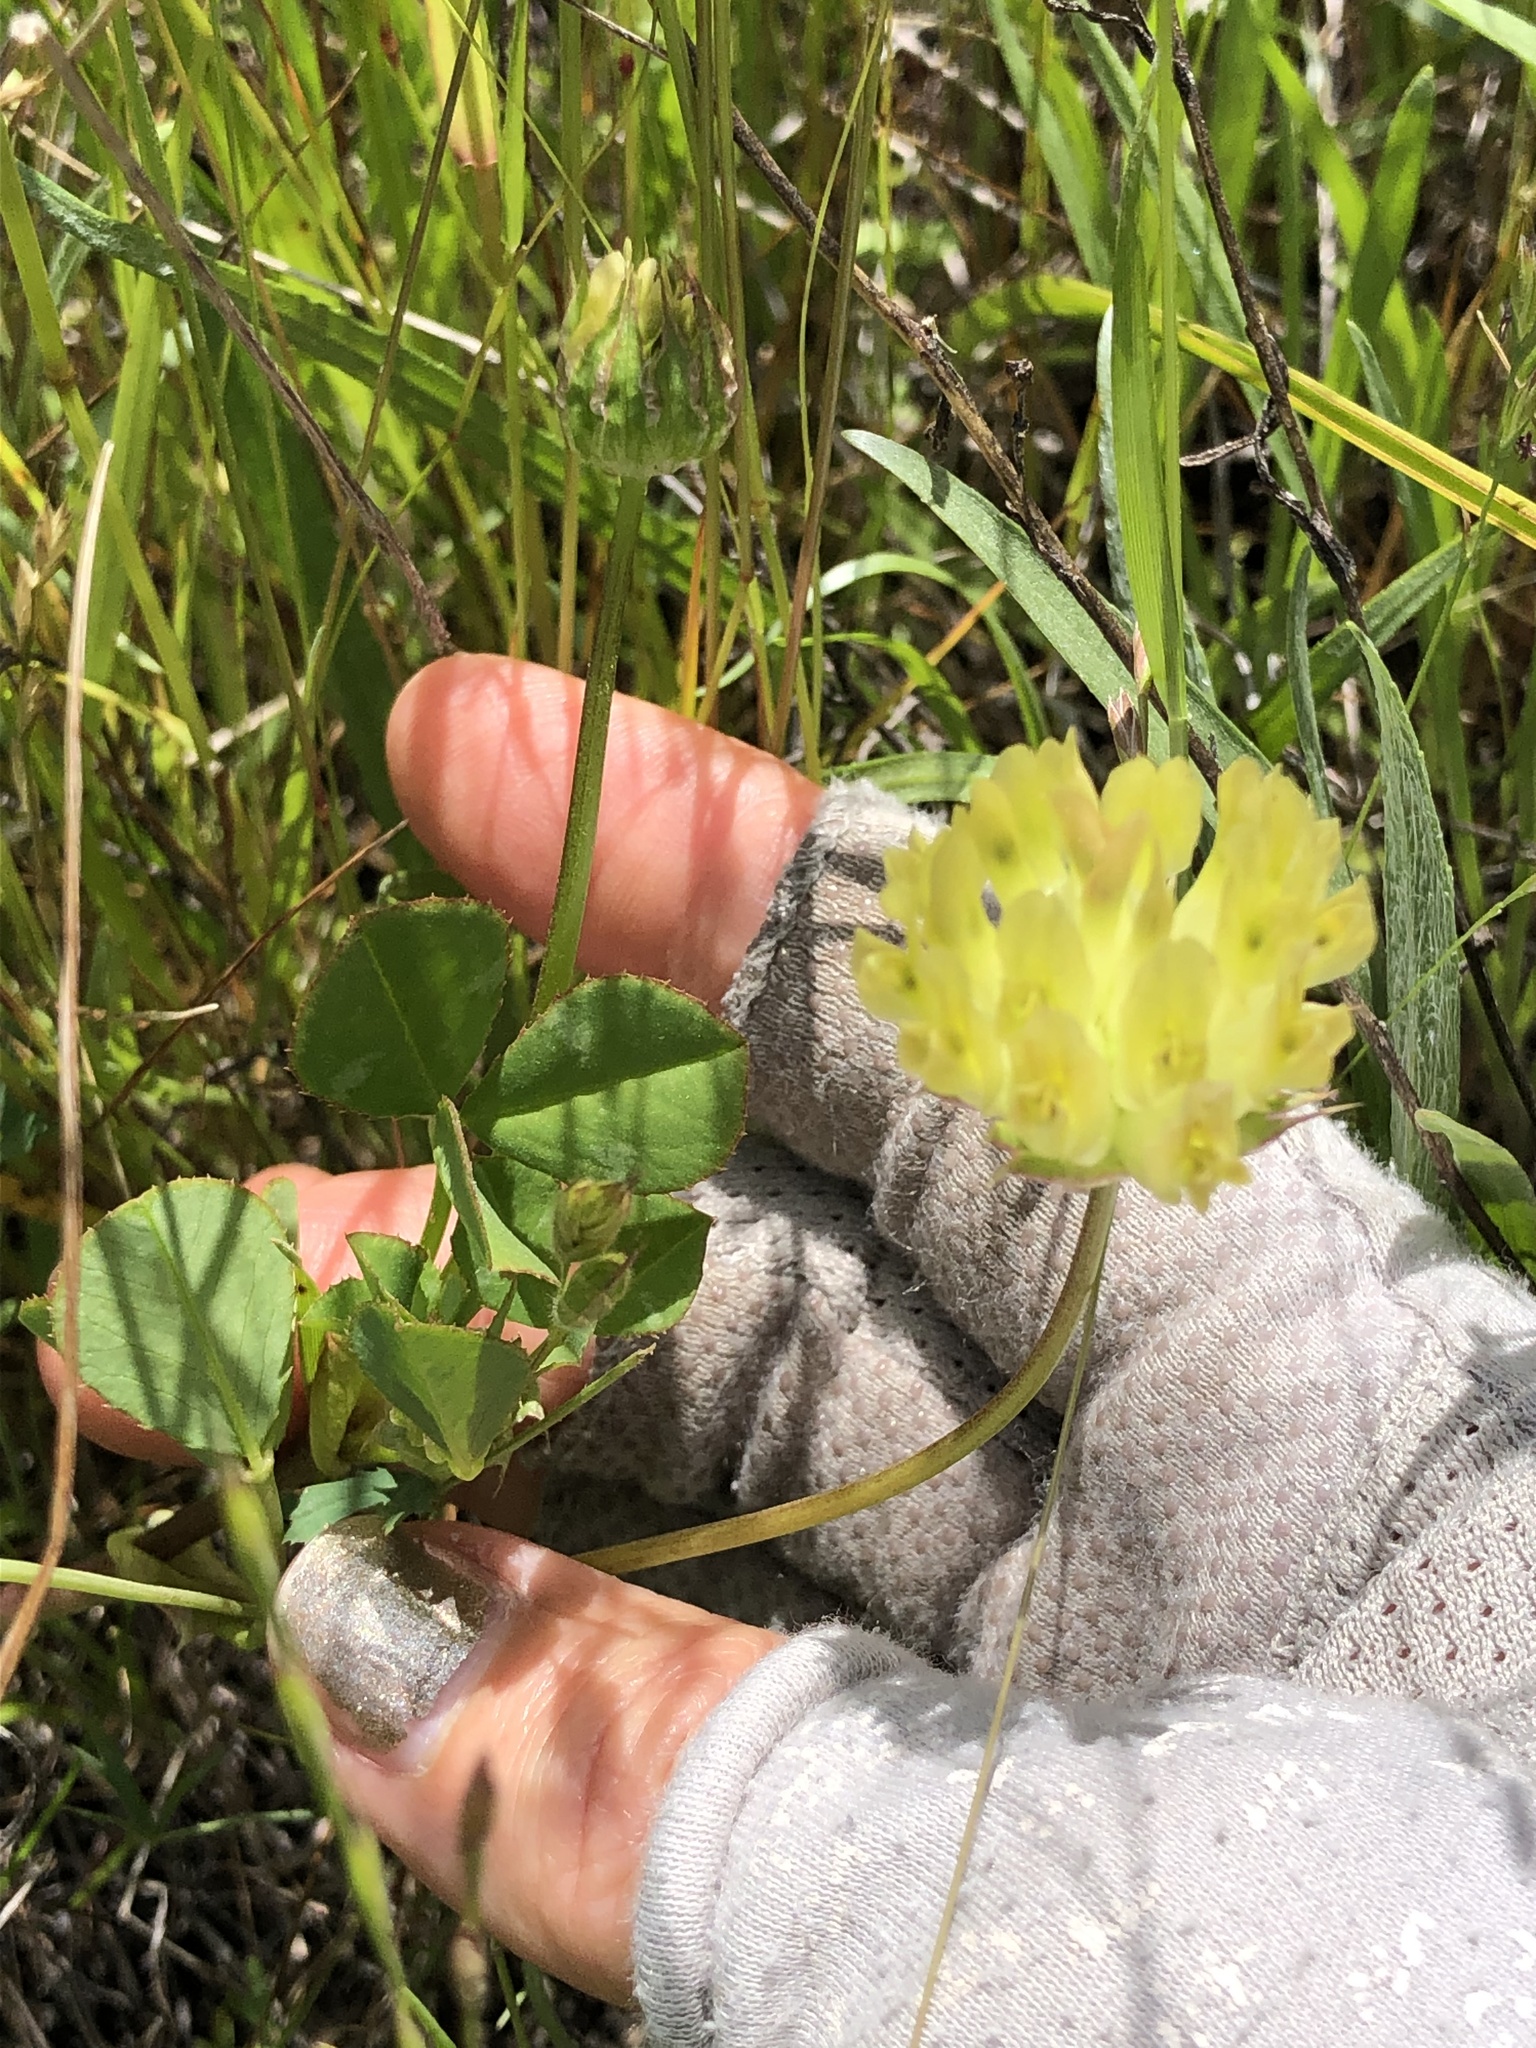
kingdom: Plantae
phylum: Tracheophyta
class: Magnoliopsida
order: Fabales
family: Fabaceae
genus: Trifolium
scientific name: Trifolium fucatum
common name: Puff clover
